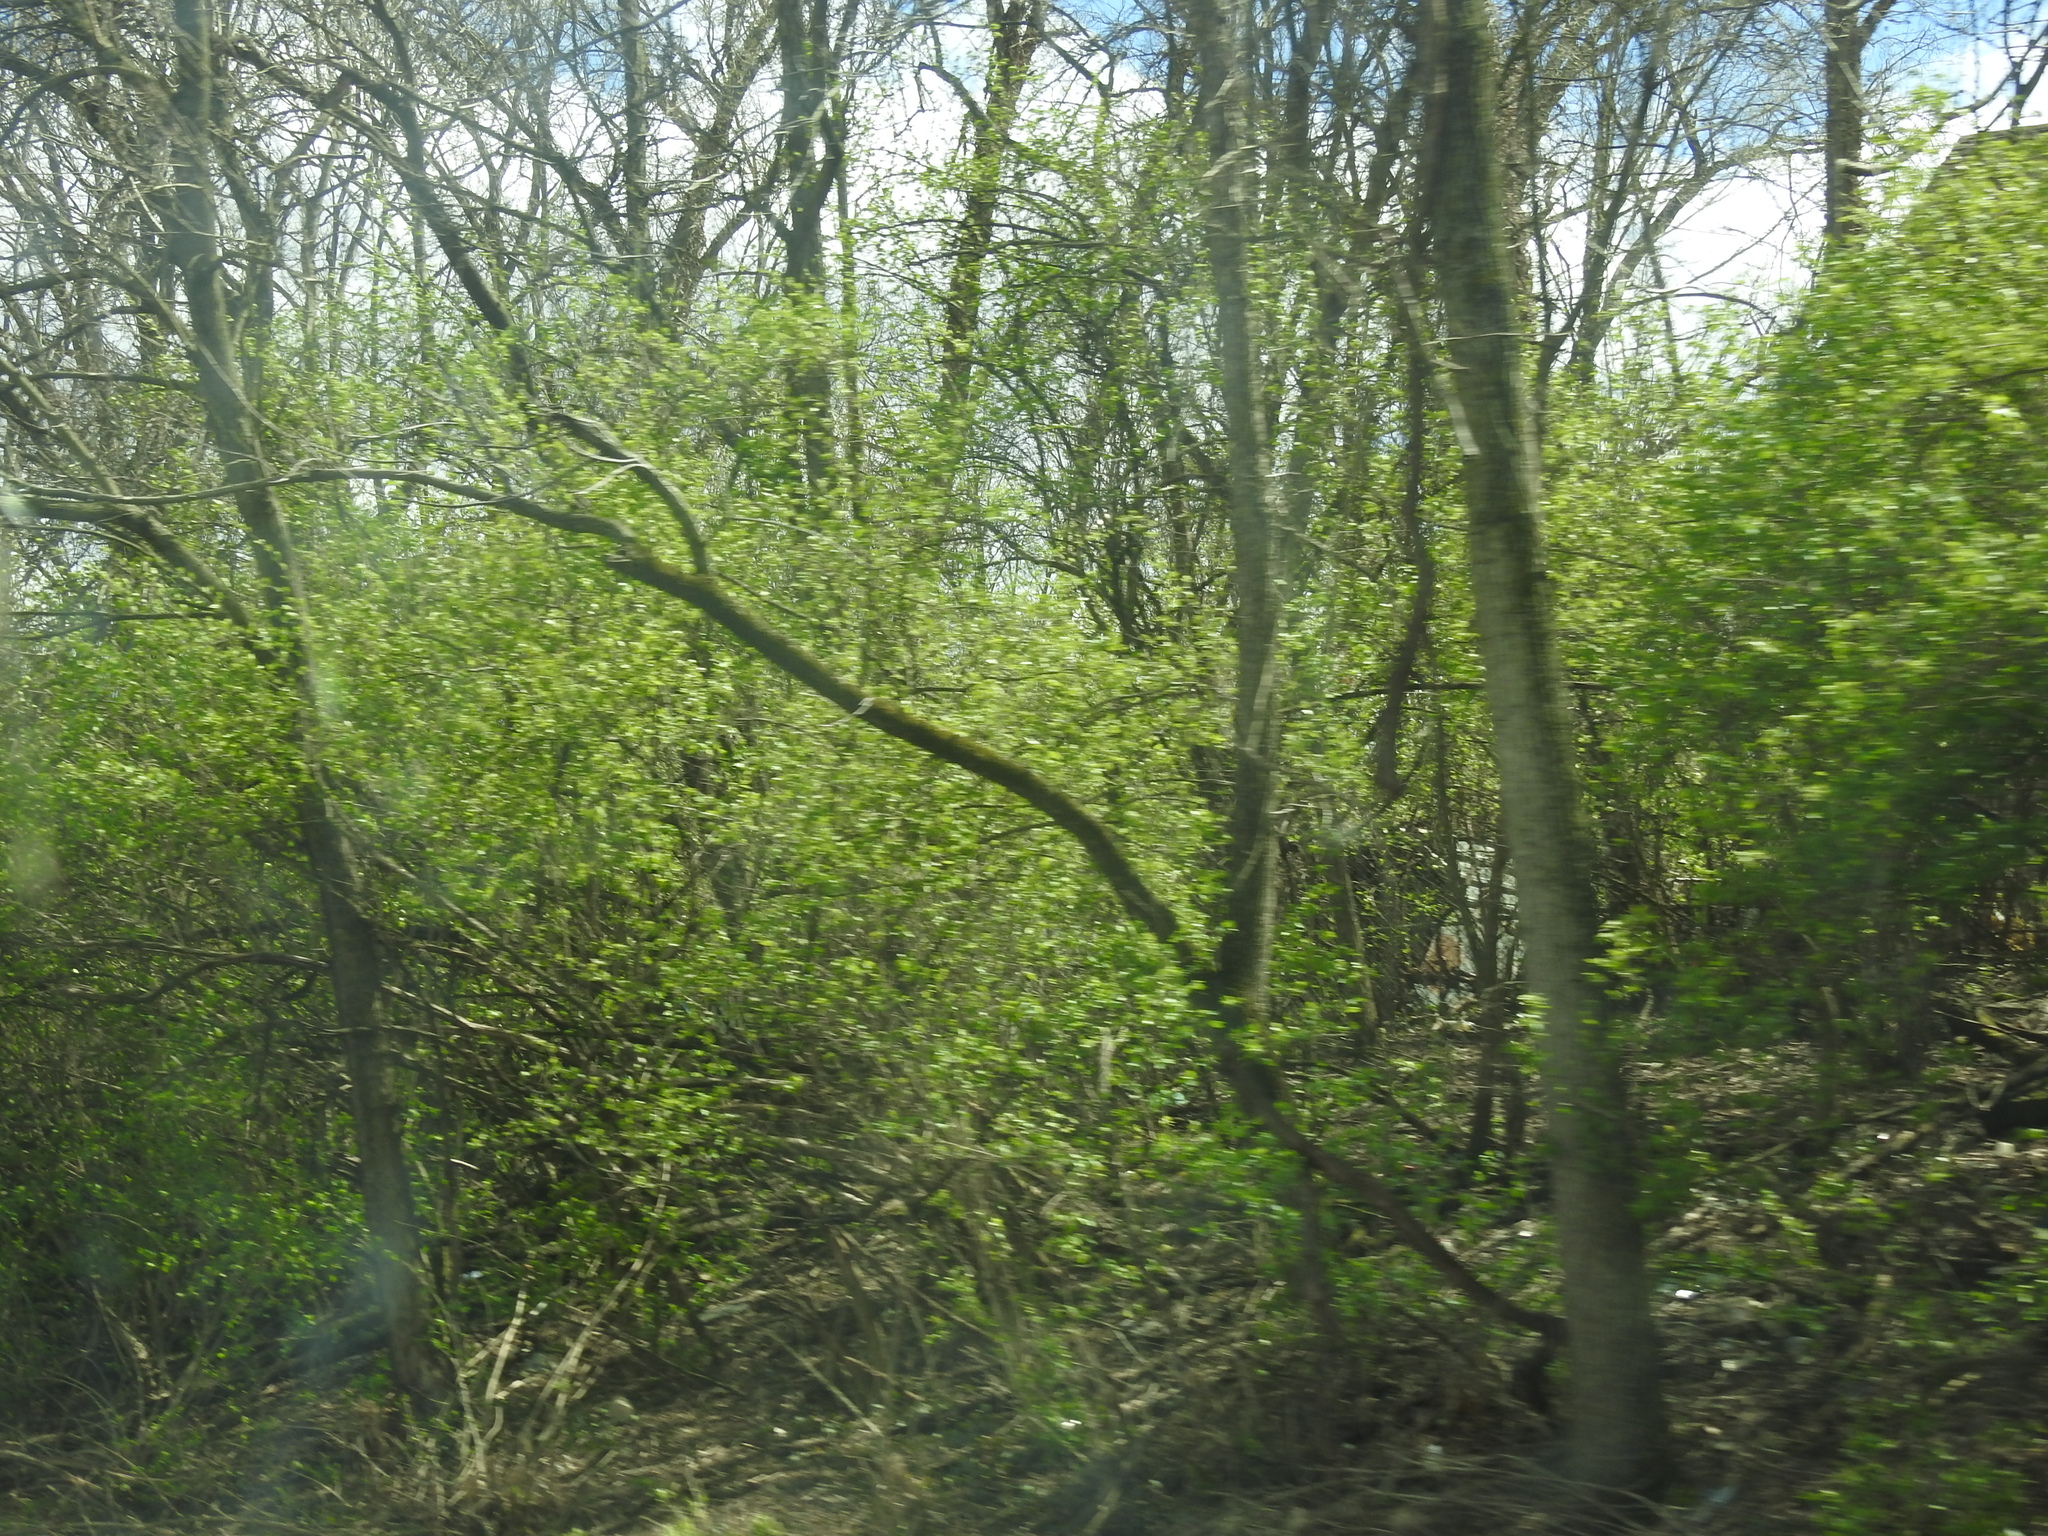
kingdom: Plantae
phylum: Tracheophyta
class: Magnoliopsida
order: Dipsacales
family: Caprifoliaceae
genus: Lonicera
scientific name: Lonicera maackii
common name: Amur honeysuckle
